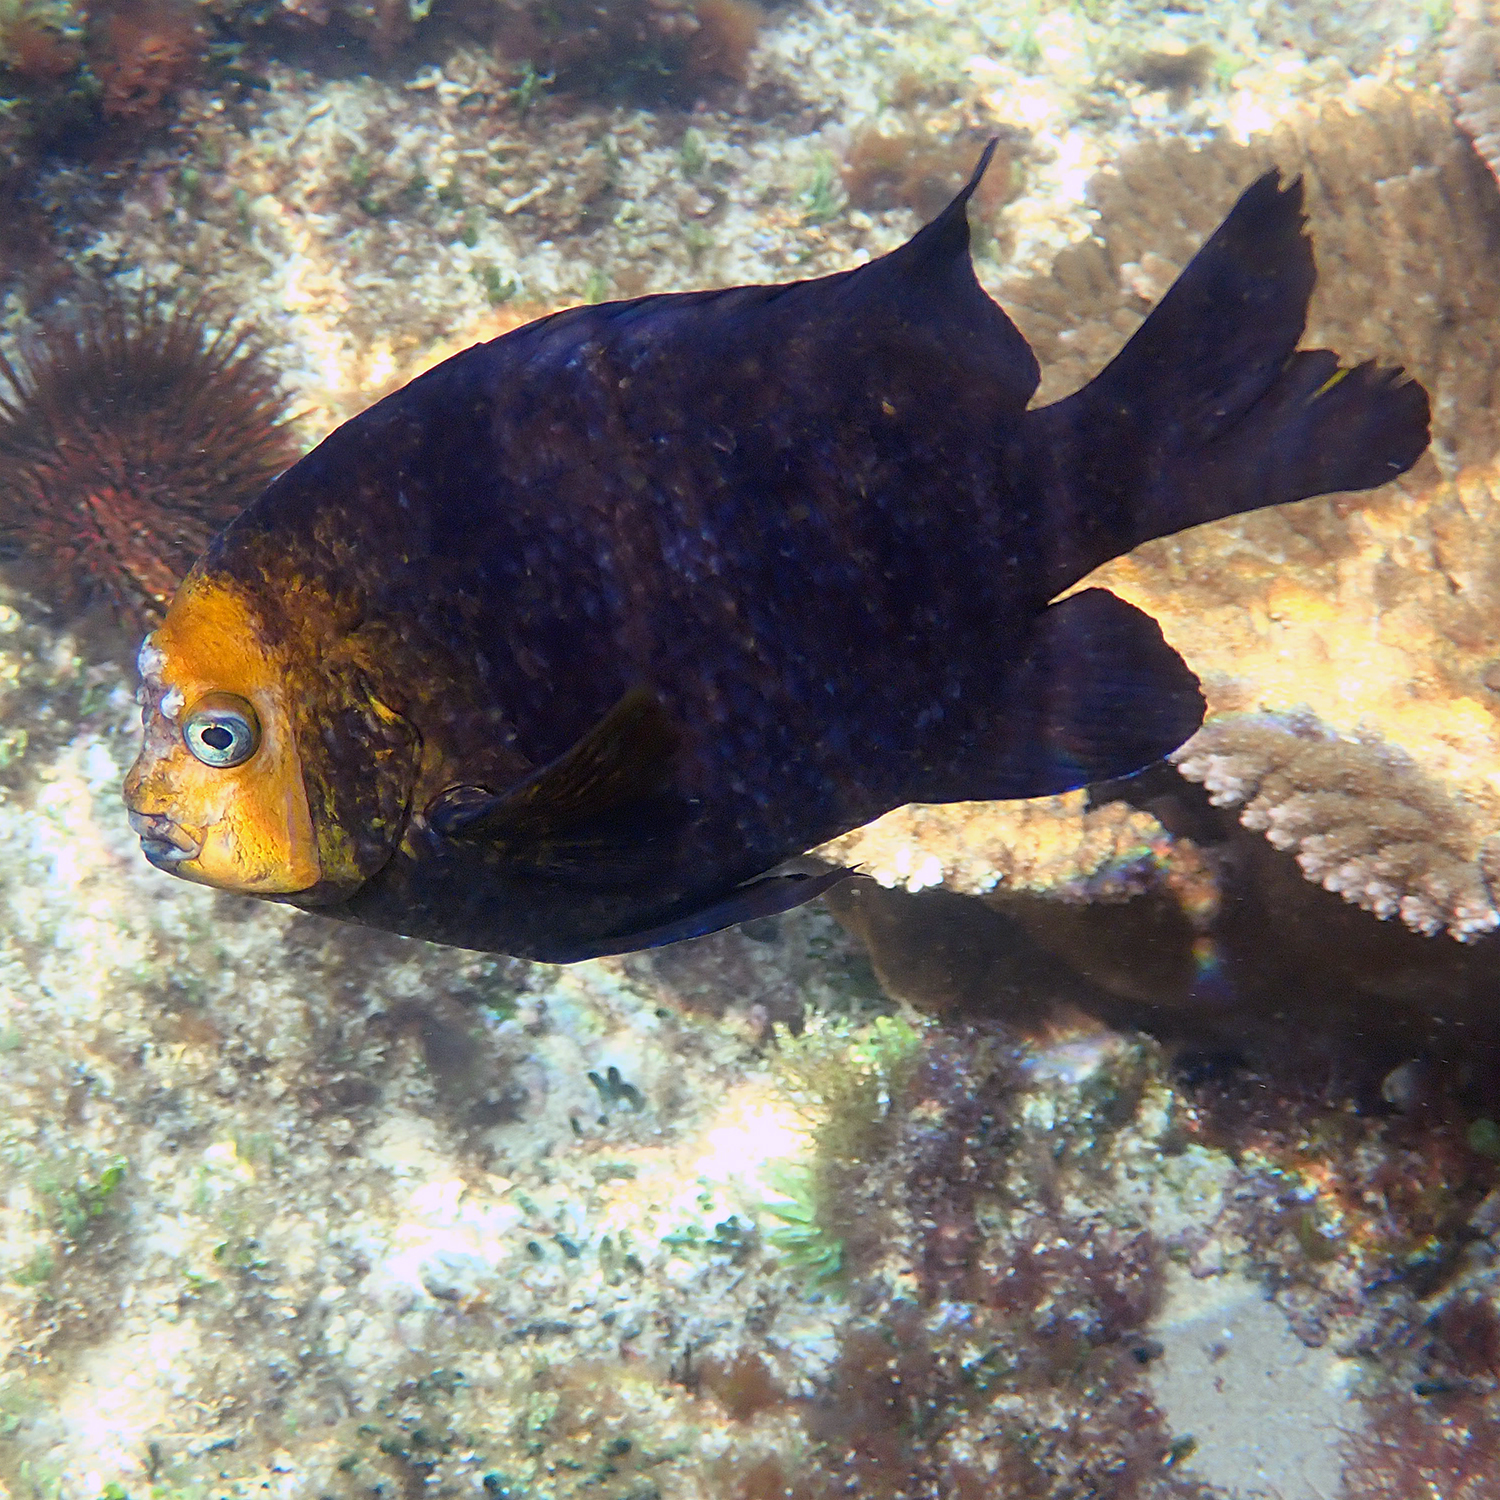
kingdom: Animalia
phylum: Chordata
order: Perciformes
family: Pomacentridae
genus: Parma
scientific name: Parma polylepis
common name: Banded parma
